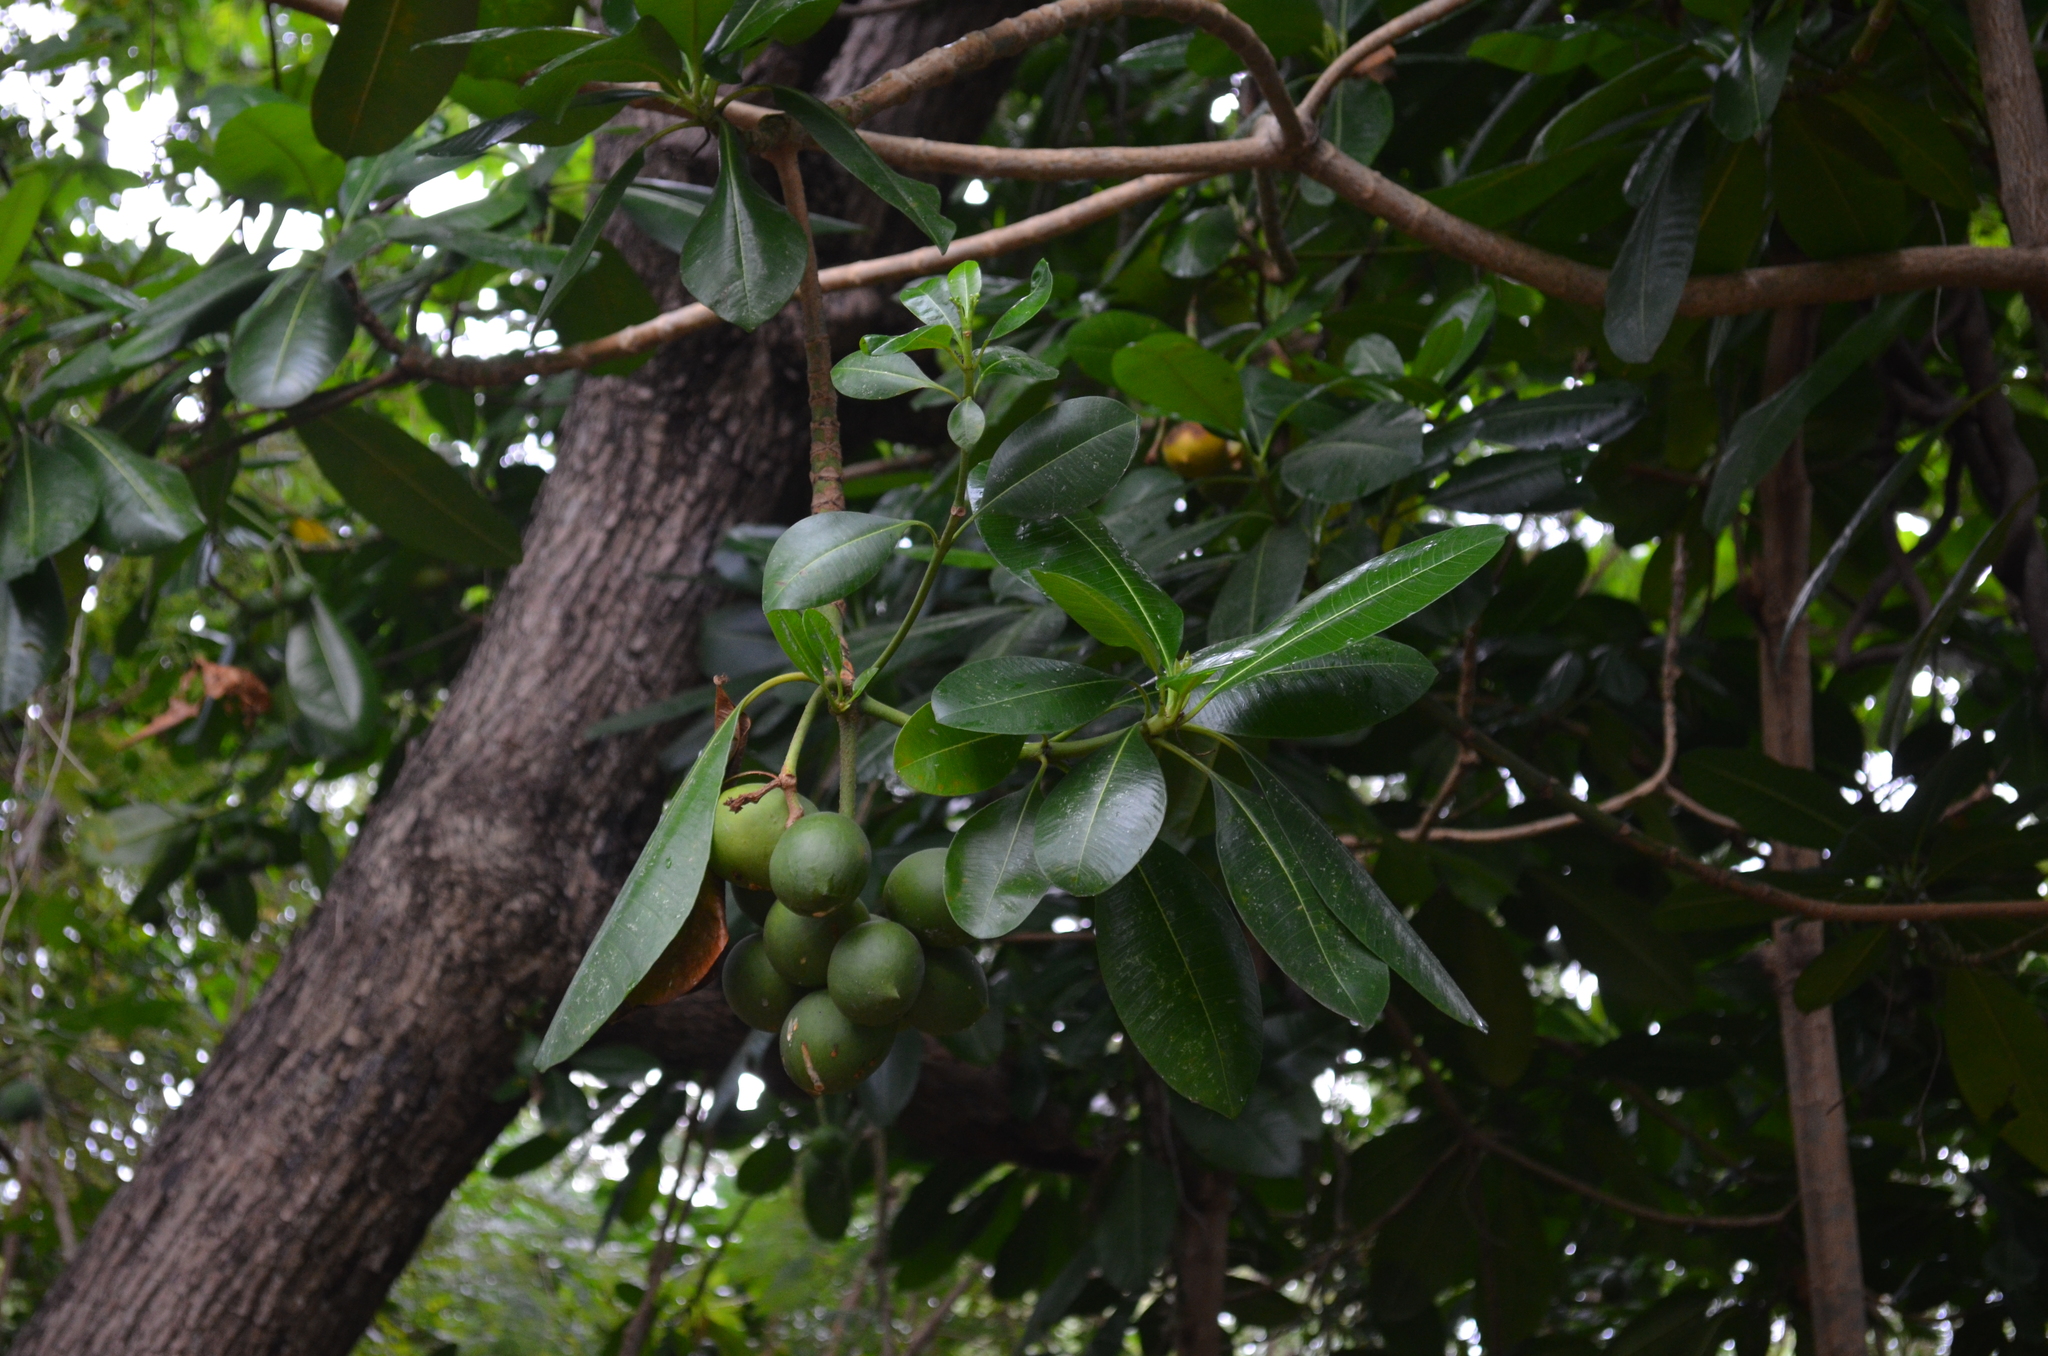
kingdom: Plantae
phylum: Tracheophyta
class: Magnoliopsida
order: Malpighiales
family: Calophyllaceae
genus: Calophyllum
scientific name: Calophyllum inophyllum
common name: Alexandrian laurel
